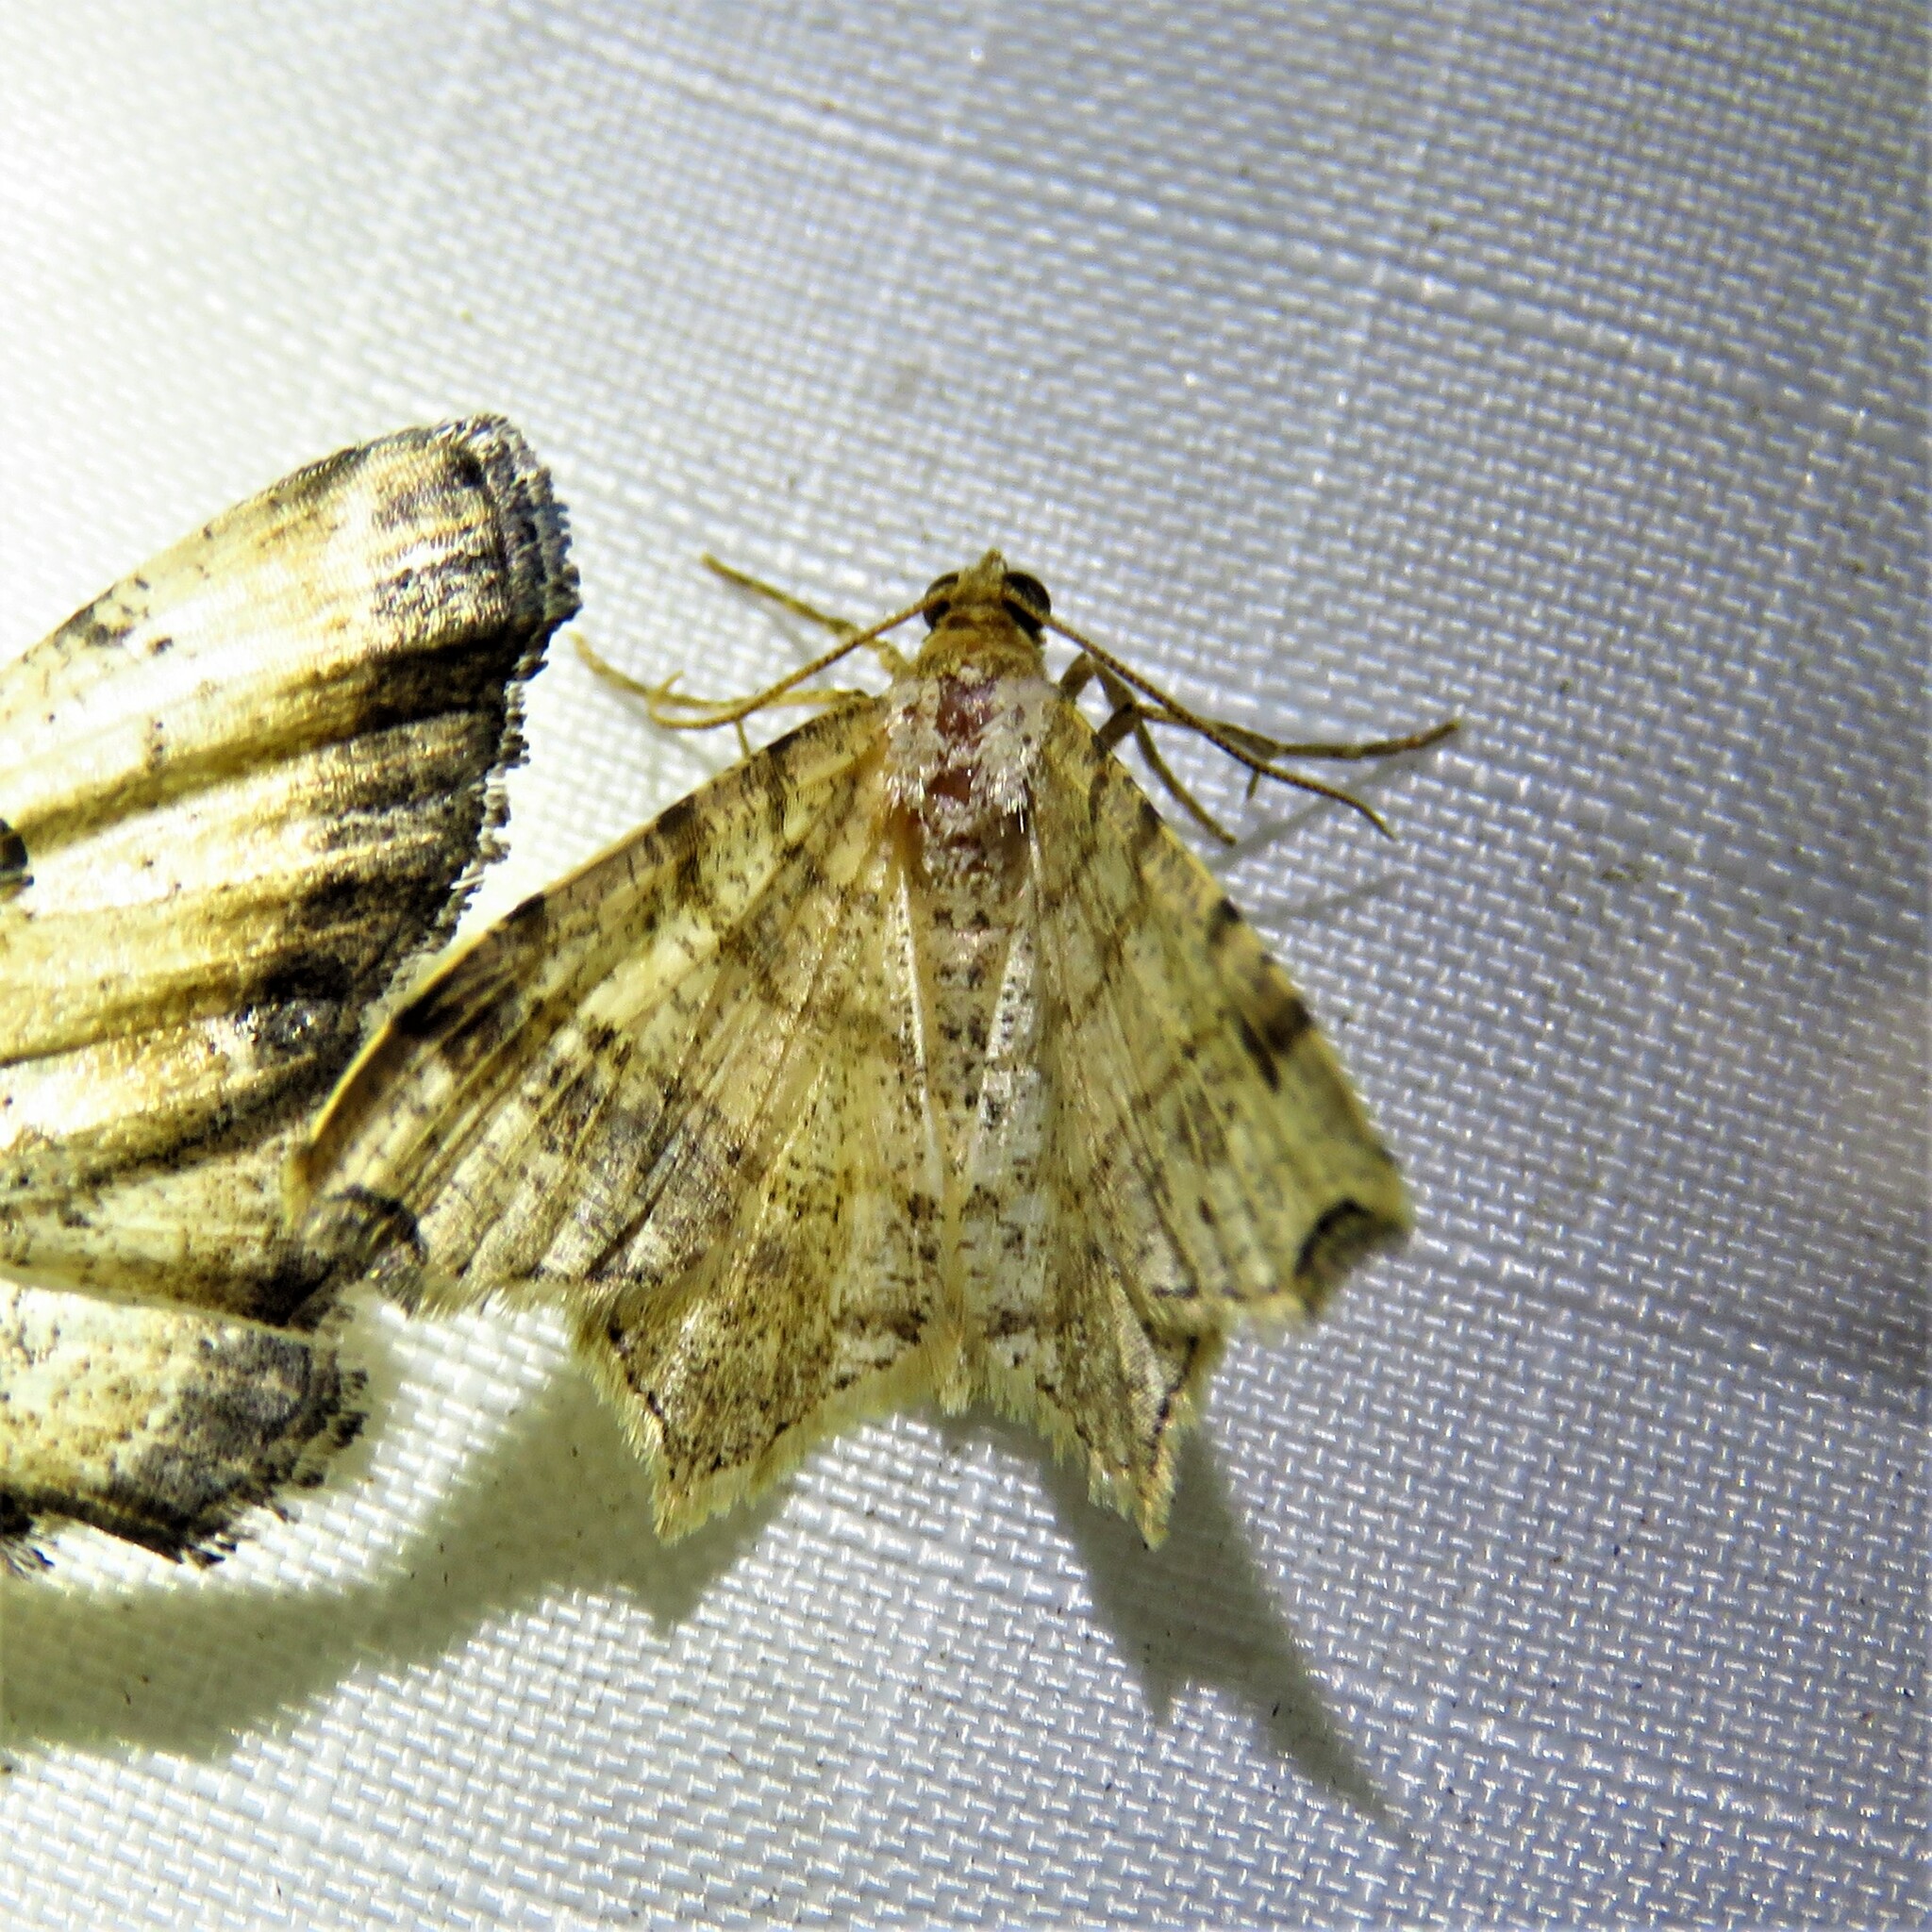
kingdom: Animalia
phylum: Arthropoda
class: Insecta
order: Lepidoptera
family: Geometridae
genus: Macaria
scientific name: Macaria aemulataria
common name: Common angle
